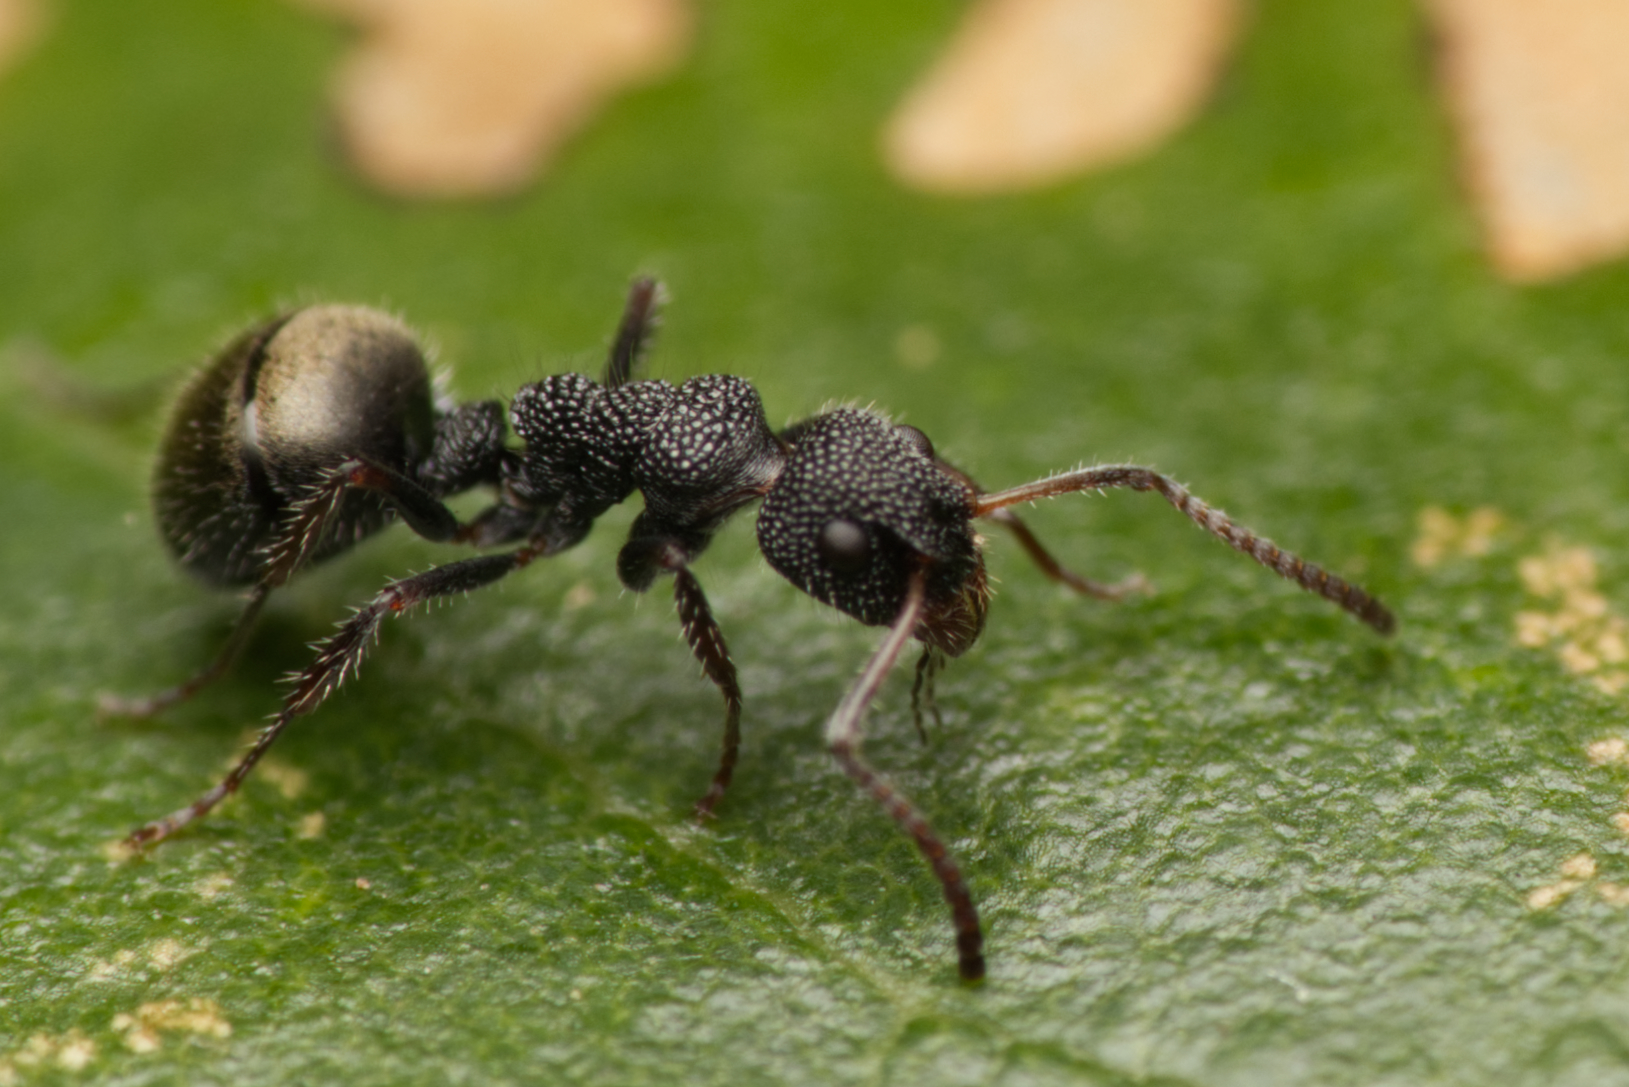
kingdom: Animalia
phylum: Arthropoda
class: Insecta
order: Hymenoptera
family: Formicidae
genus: Dolichoderus
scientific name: Dolichoderus scrobiculatus
